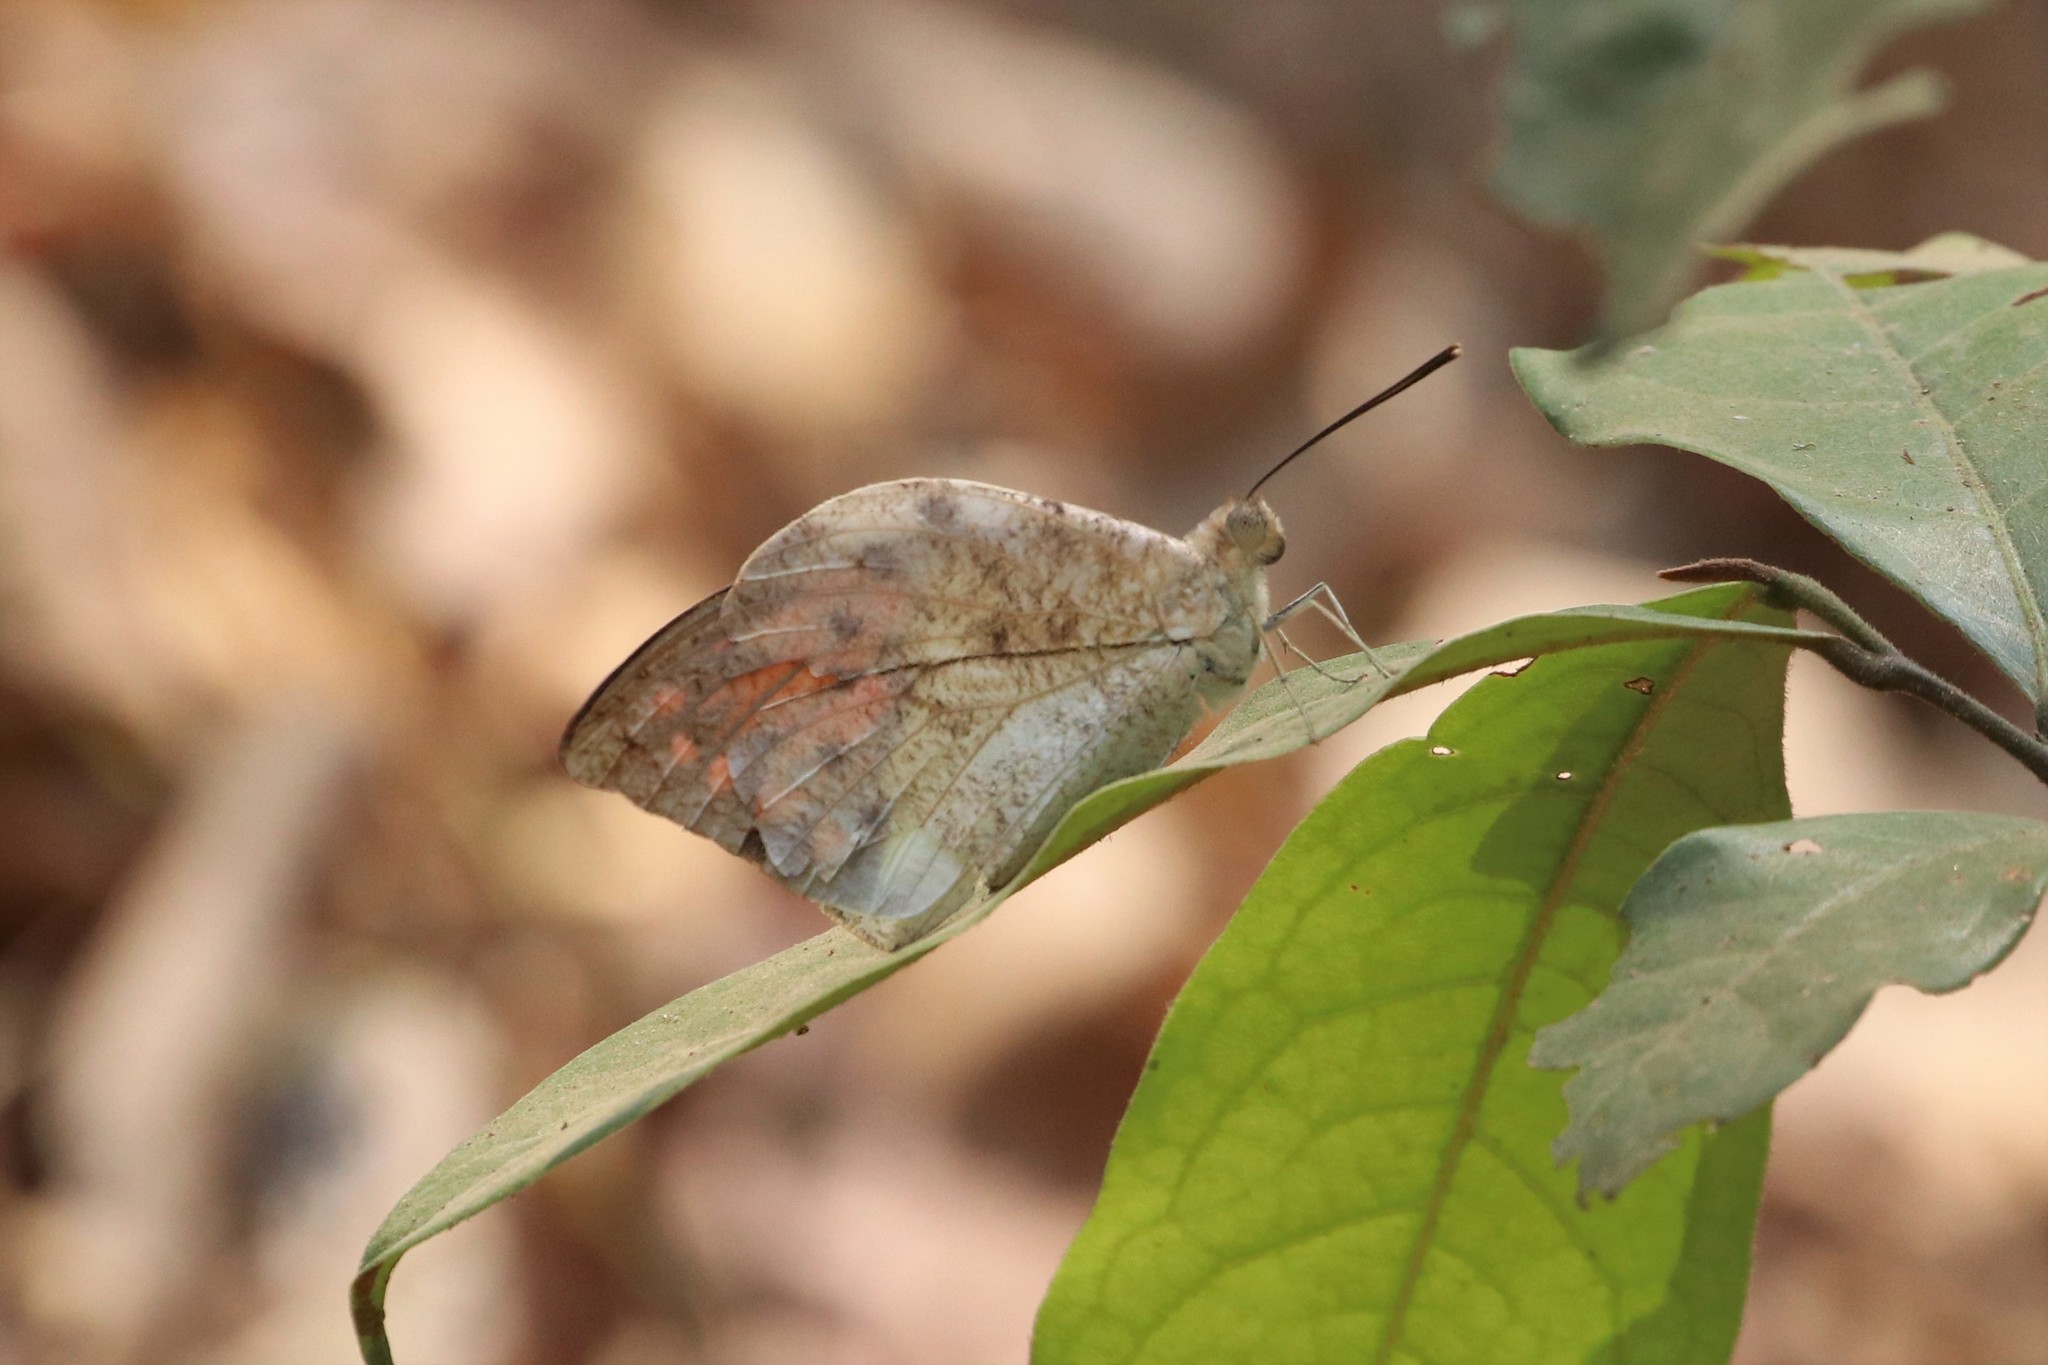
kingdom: Animalia
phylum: Arthropoda
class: Insecta
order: Lepidoptera
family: Pieridae
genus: Hebomoia
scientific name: Hebomoia glaucippe
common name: Great orange tip
